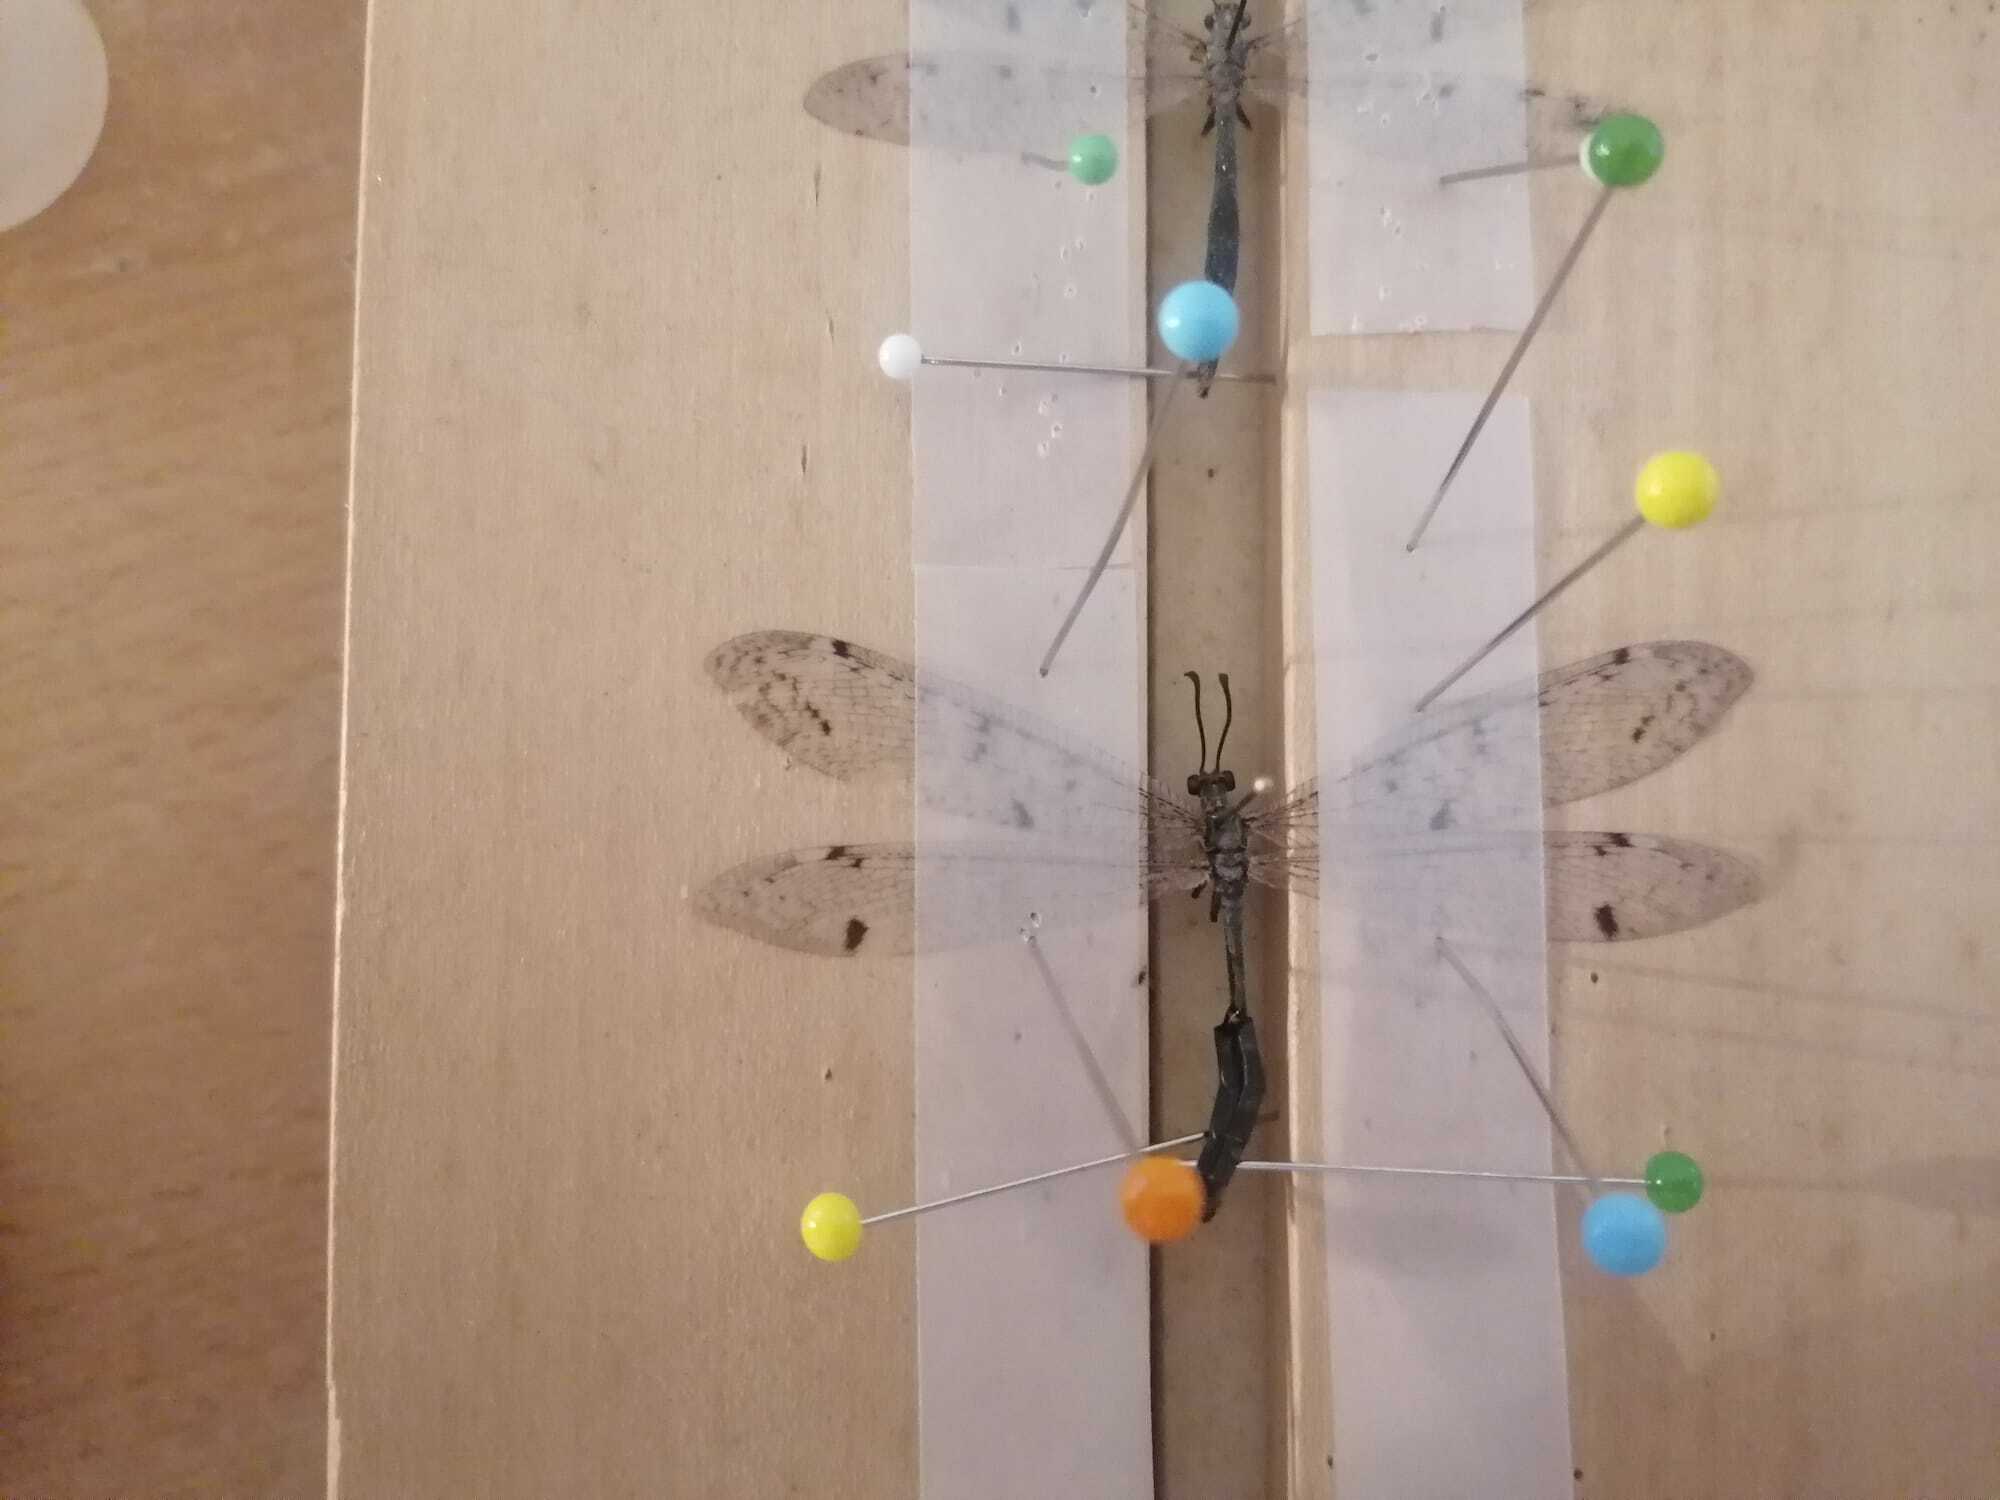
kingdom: Animalia
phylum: Arthropoda
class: Insecta
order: Neuroptera
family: Myrmeleontidae
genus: Distoleon
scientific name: Distoleon tetragrammicus
